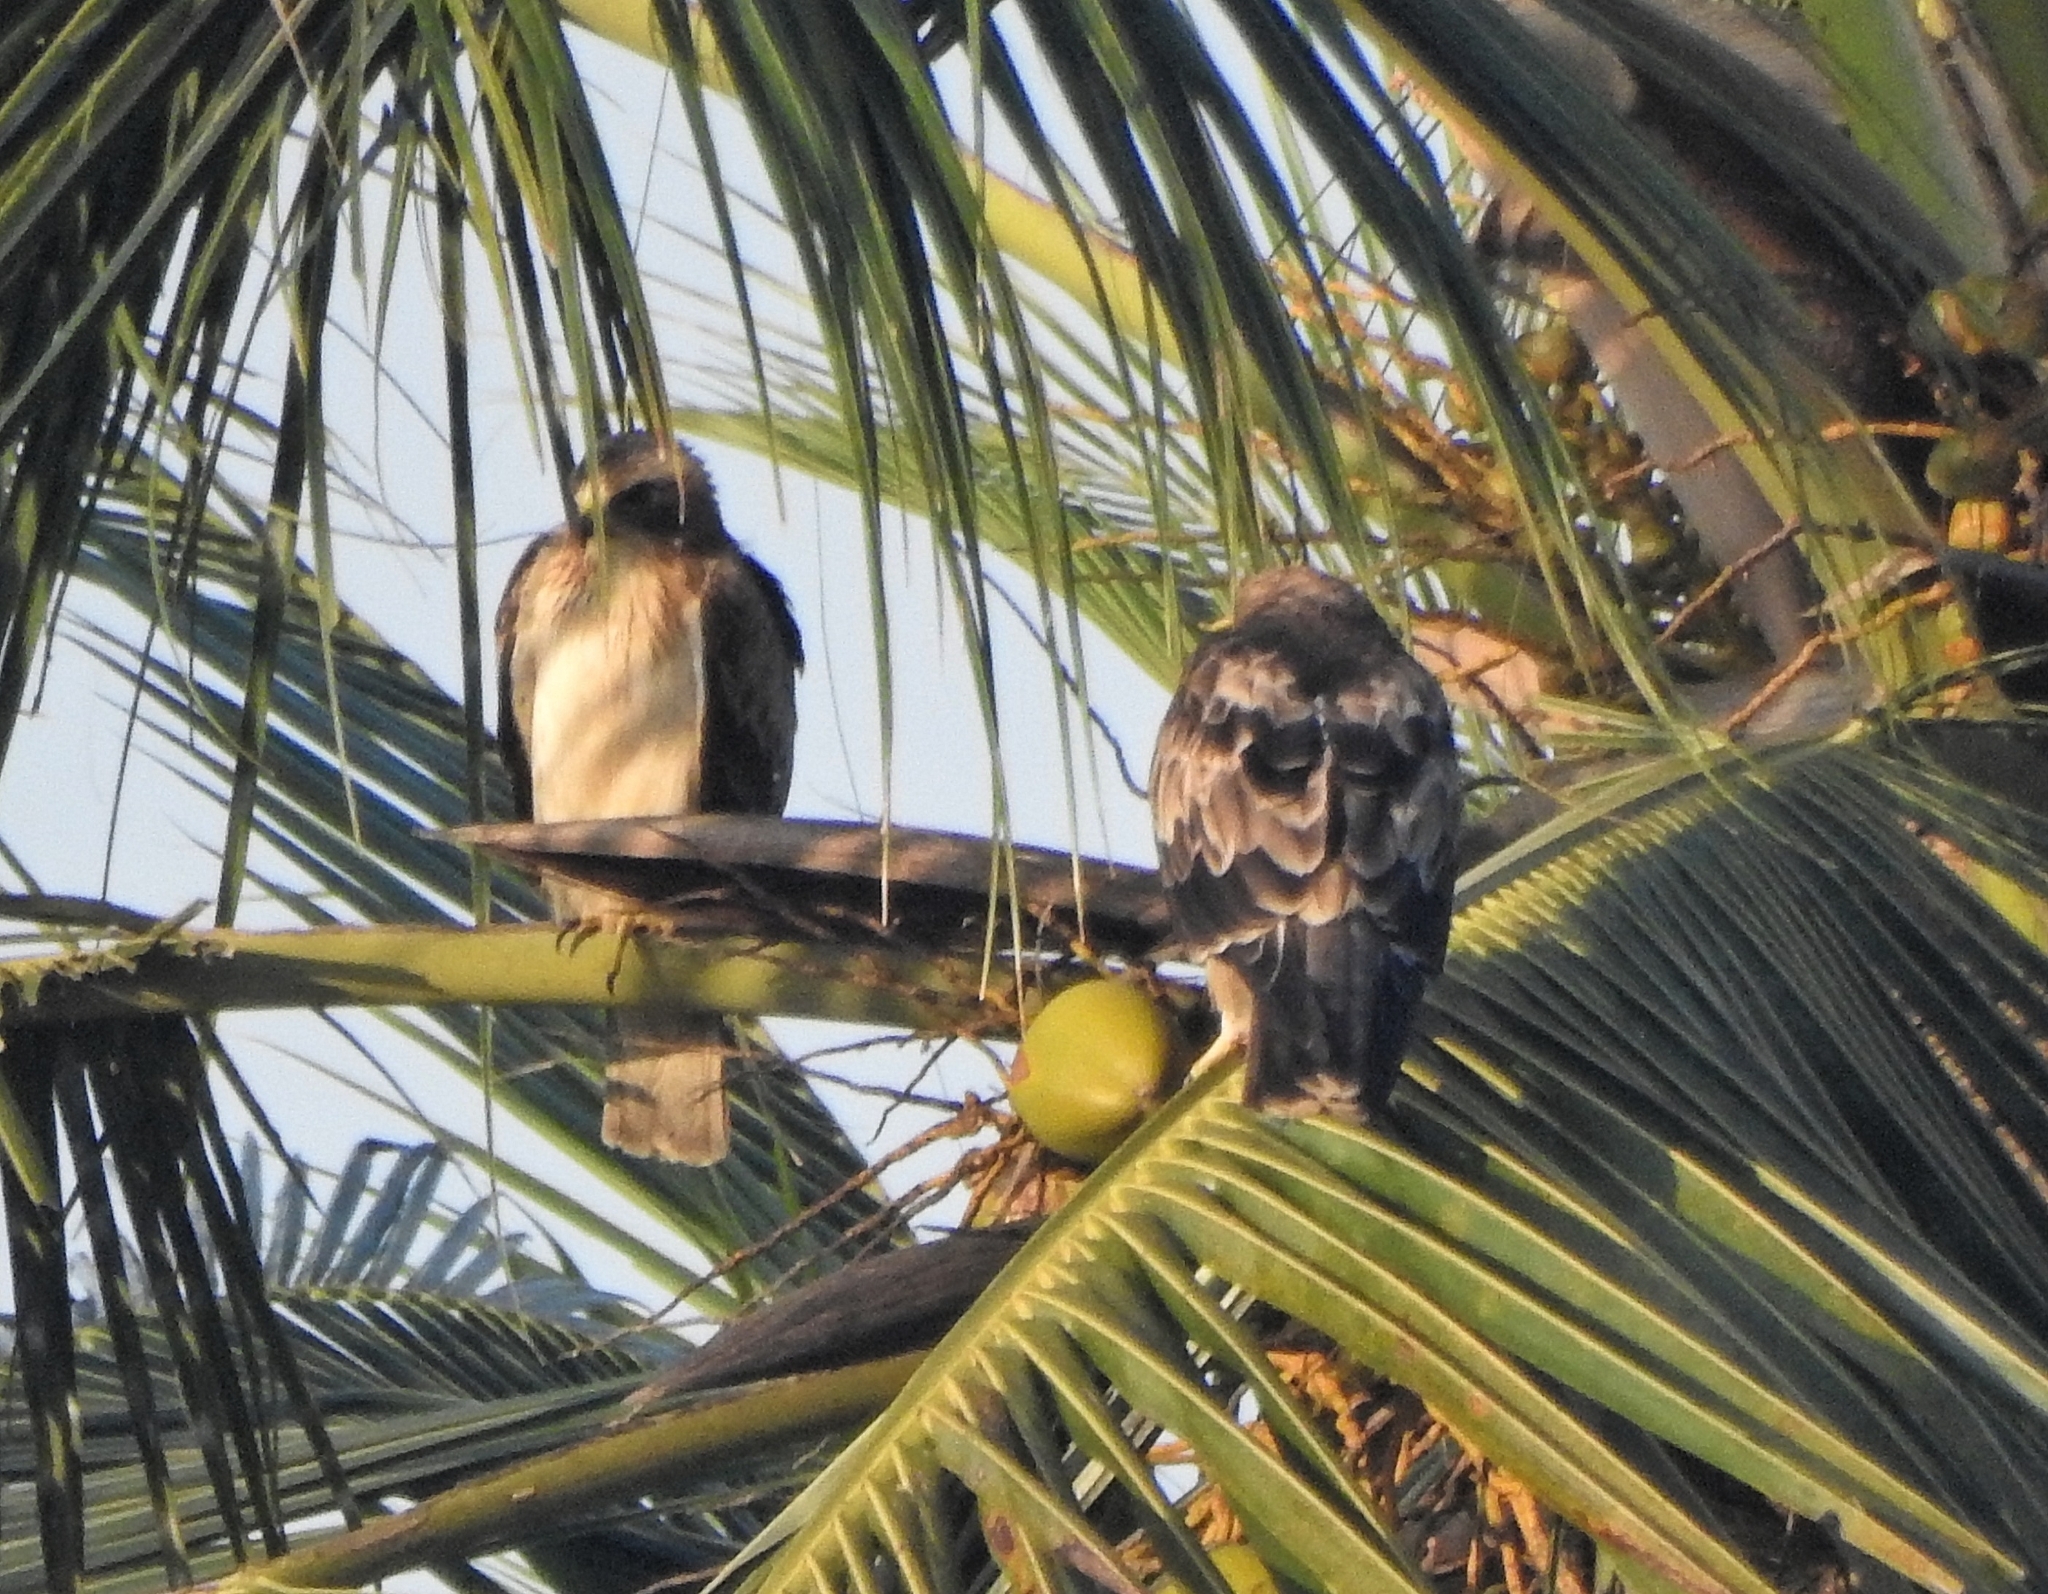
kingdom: Animalia
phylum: Chordata
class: Aves
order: Accipitriformes
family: Accipitridae
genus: Hieraaetus
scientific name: Hieraaetus pennatus
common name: Booted eagle
